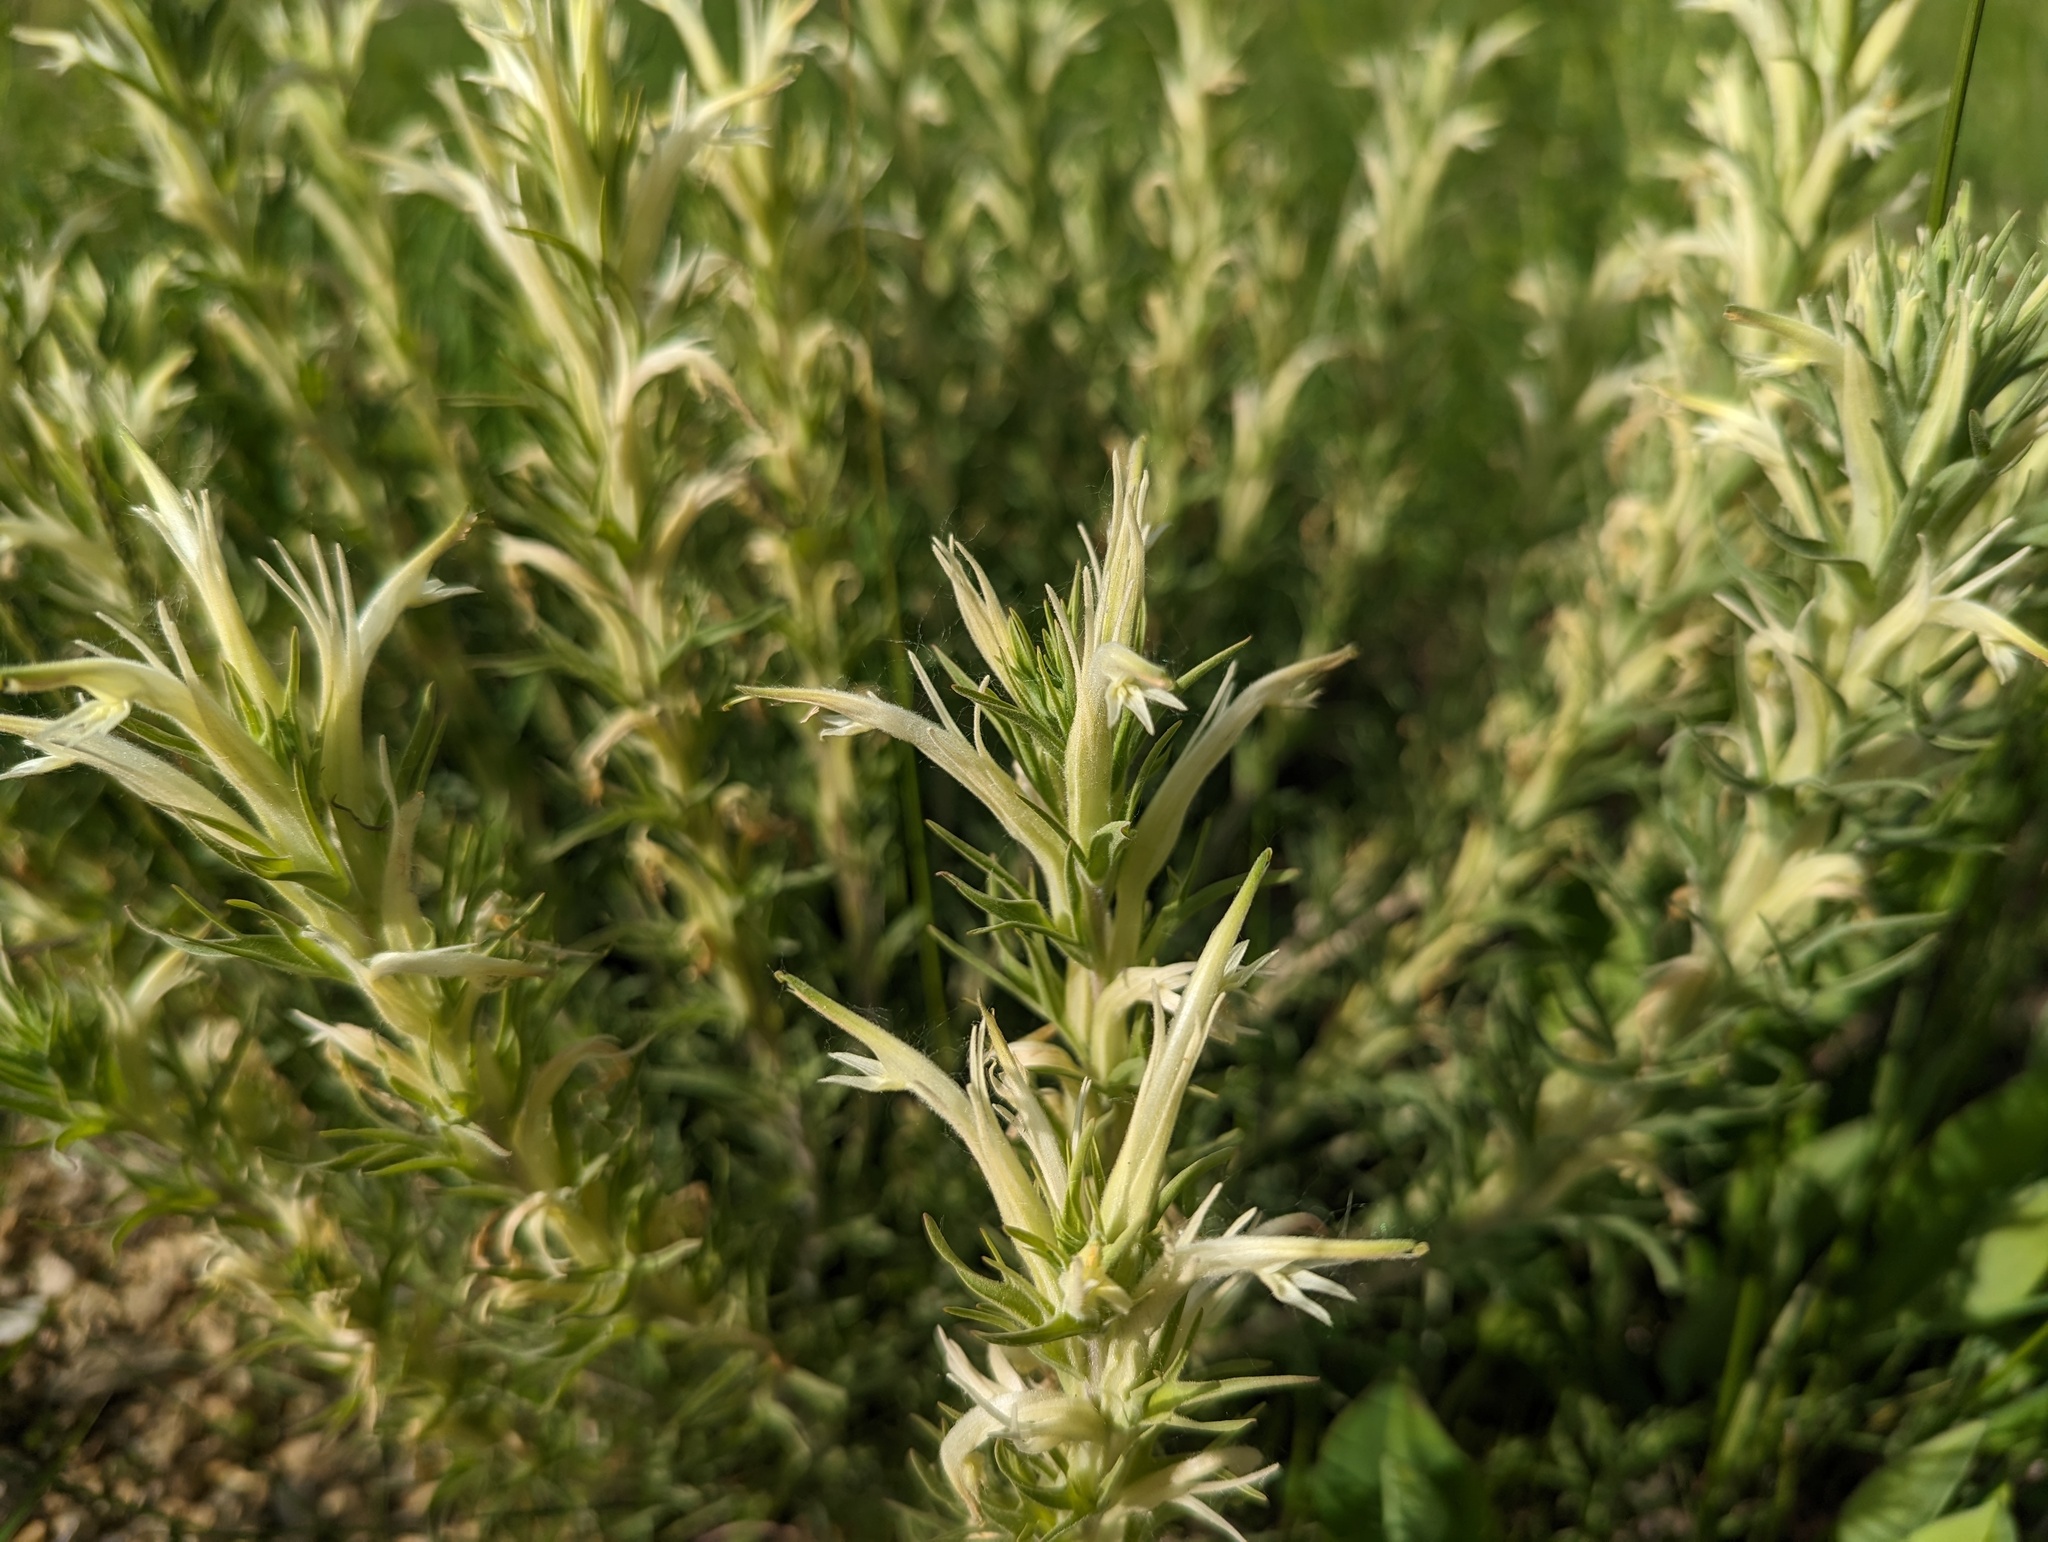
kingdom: Plantae
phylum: Tracheophyta
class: Magnoliopsida
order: Lamiales
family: Orobanchaceae
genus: Castilleja
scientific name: Castilleja sessiliflora
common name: Downy paintbrush
